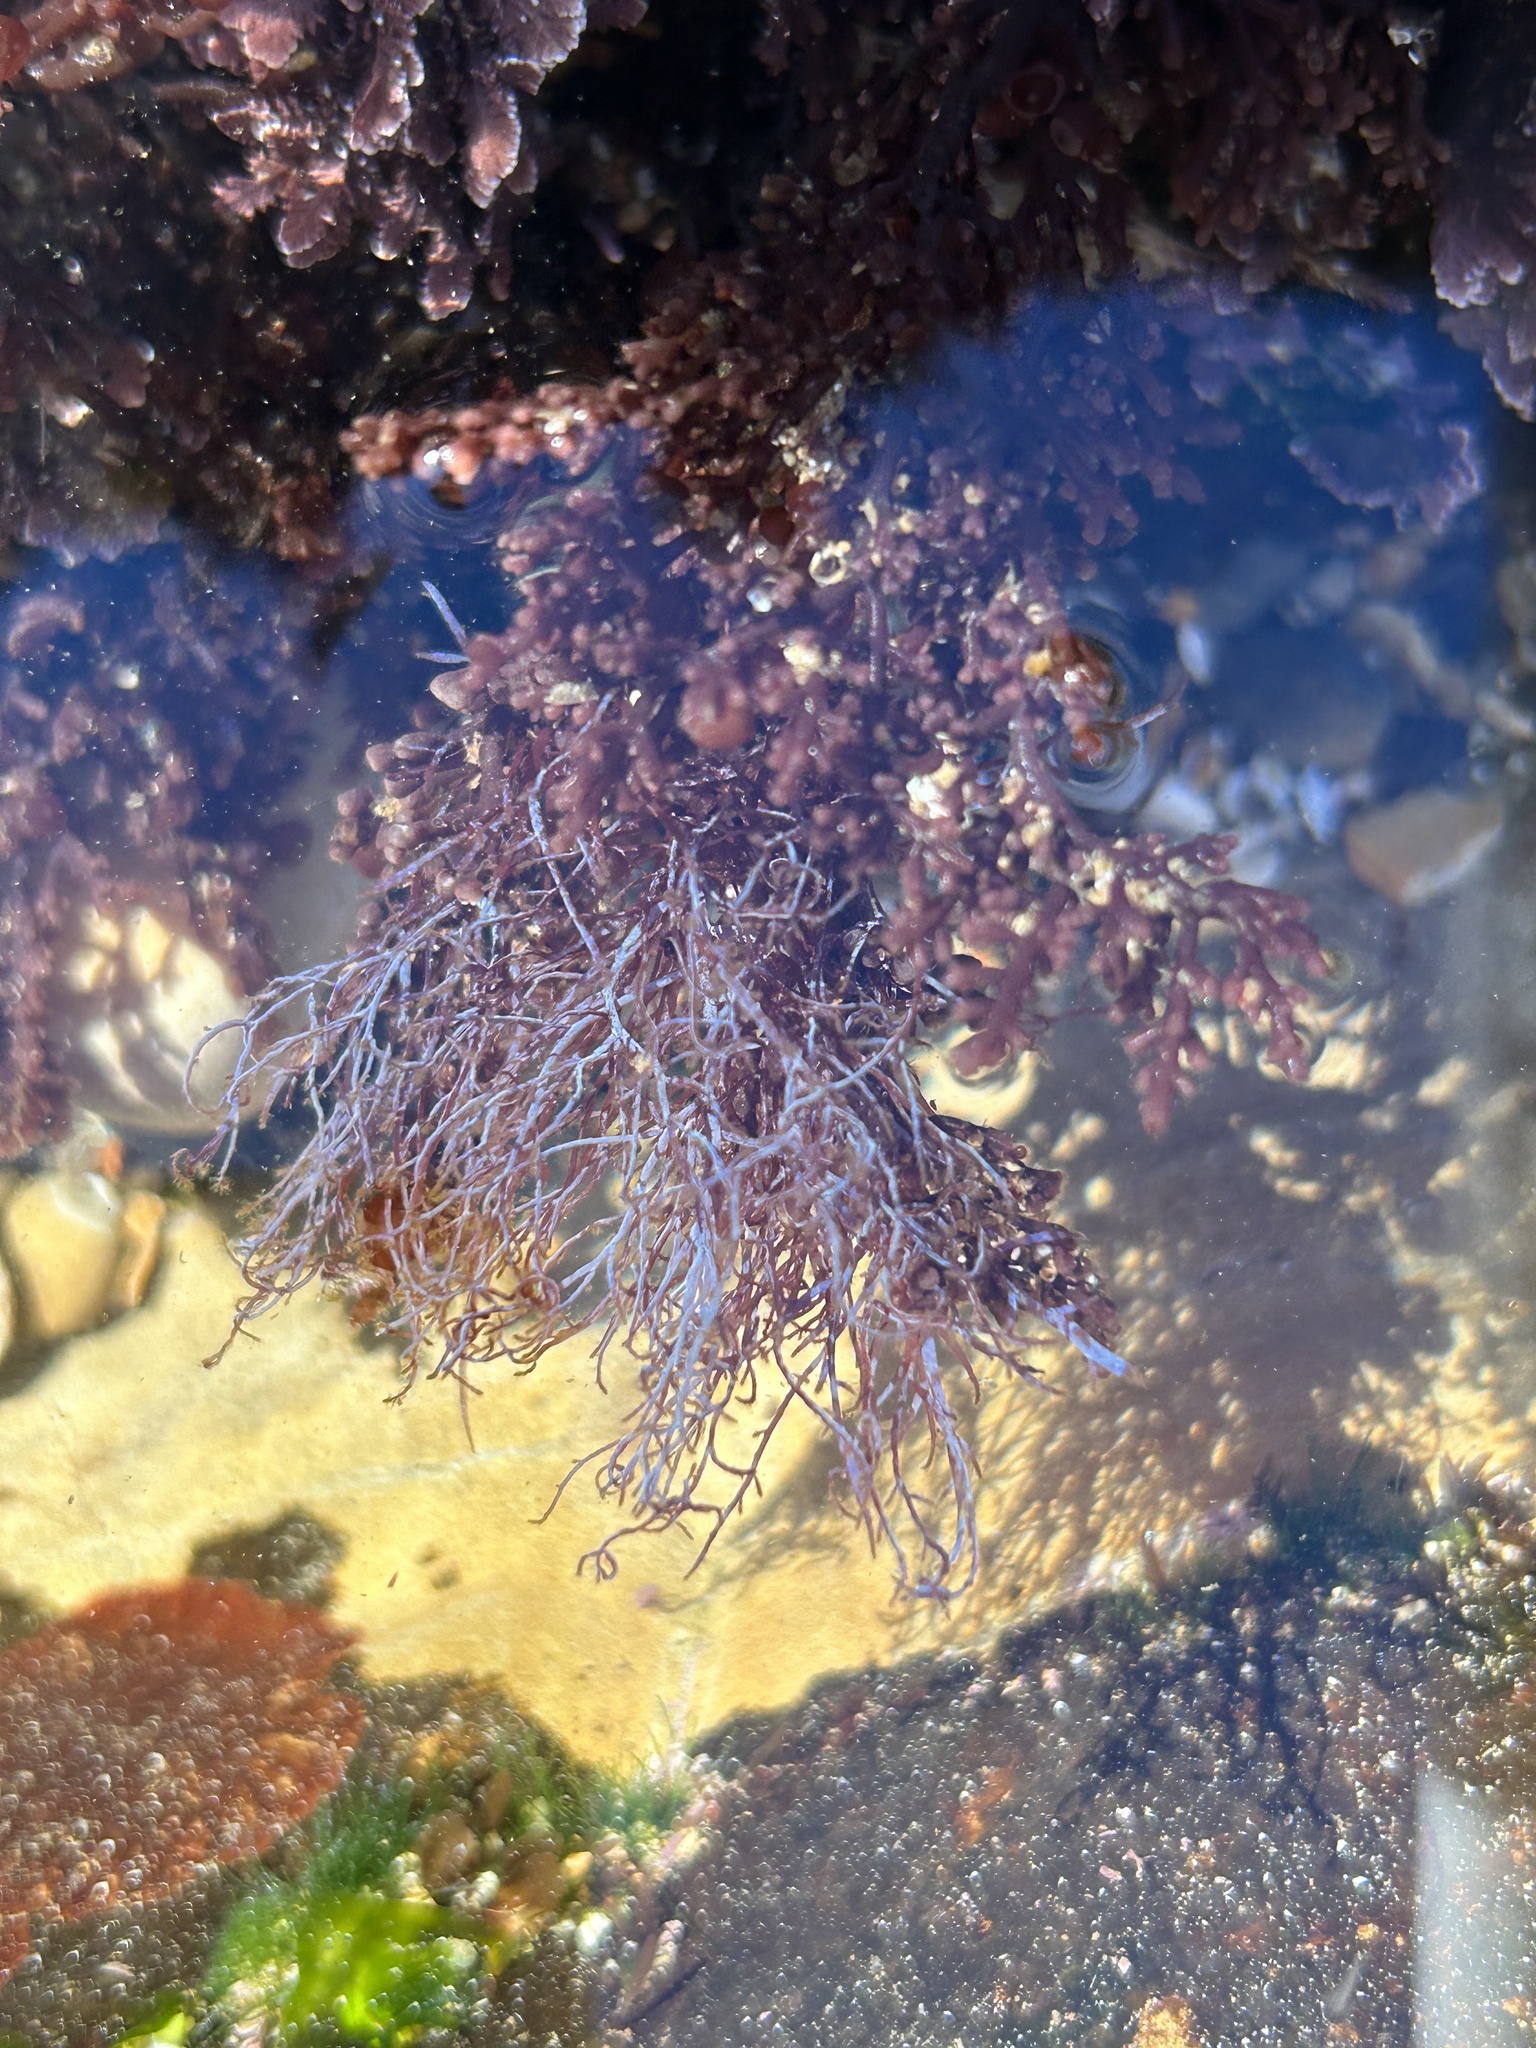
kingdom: Plantae
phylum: Rhodophyta
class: Florideophyceae
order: Ceramiales
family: Rhodomelaceae
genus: Chondria
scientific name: Chondria acrorhizophora
